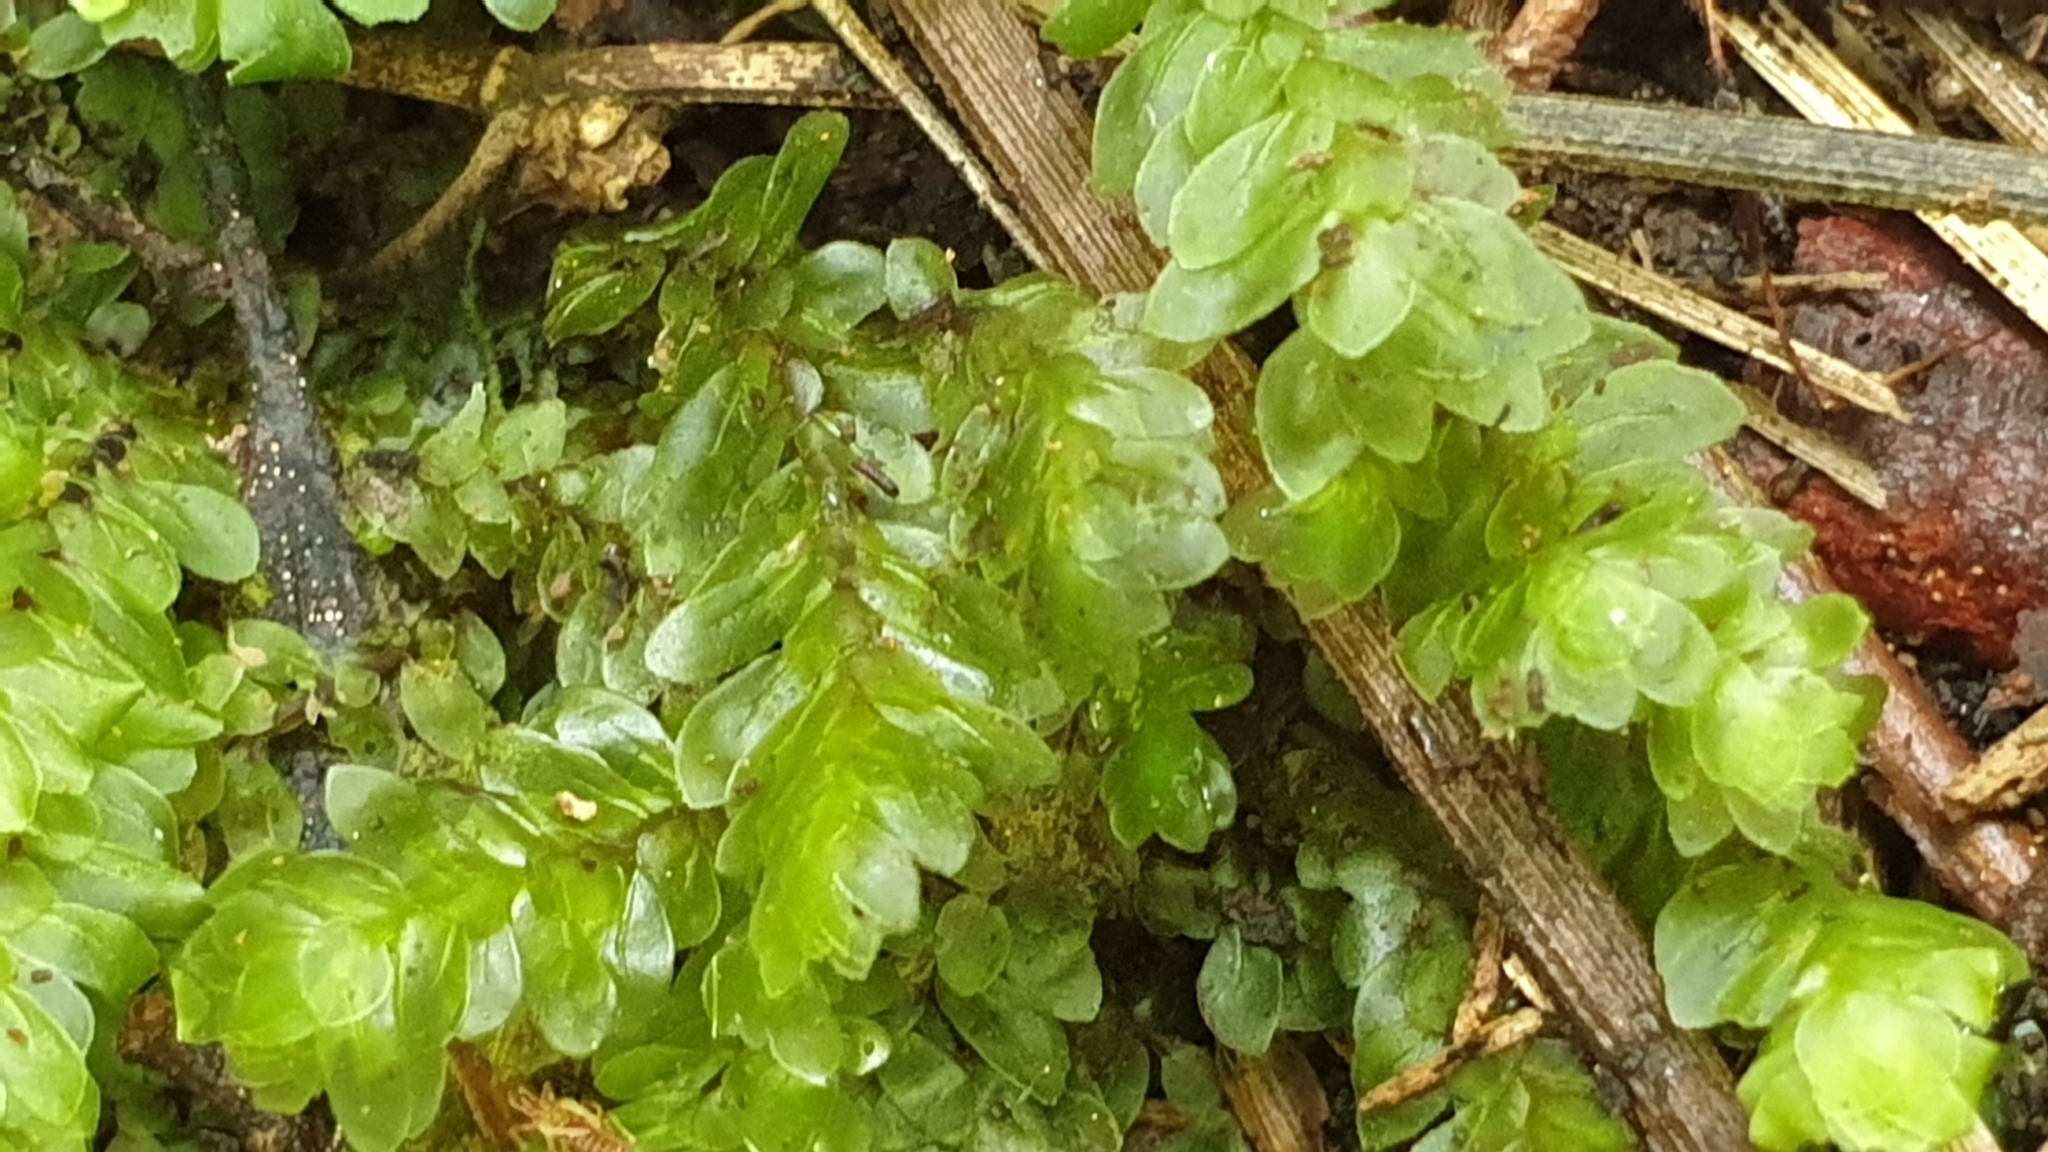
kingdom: Plantae
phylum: Bryophyta
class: Bryopsida
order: Hookeriales
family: Daltoniaceae
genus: Achrophyllum
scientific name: Achrophyllum dentatum
